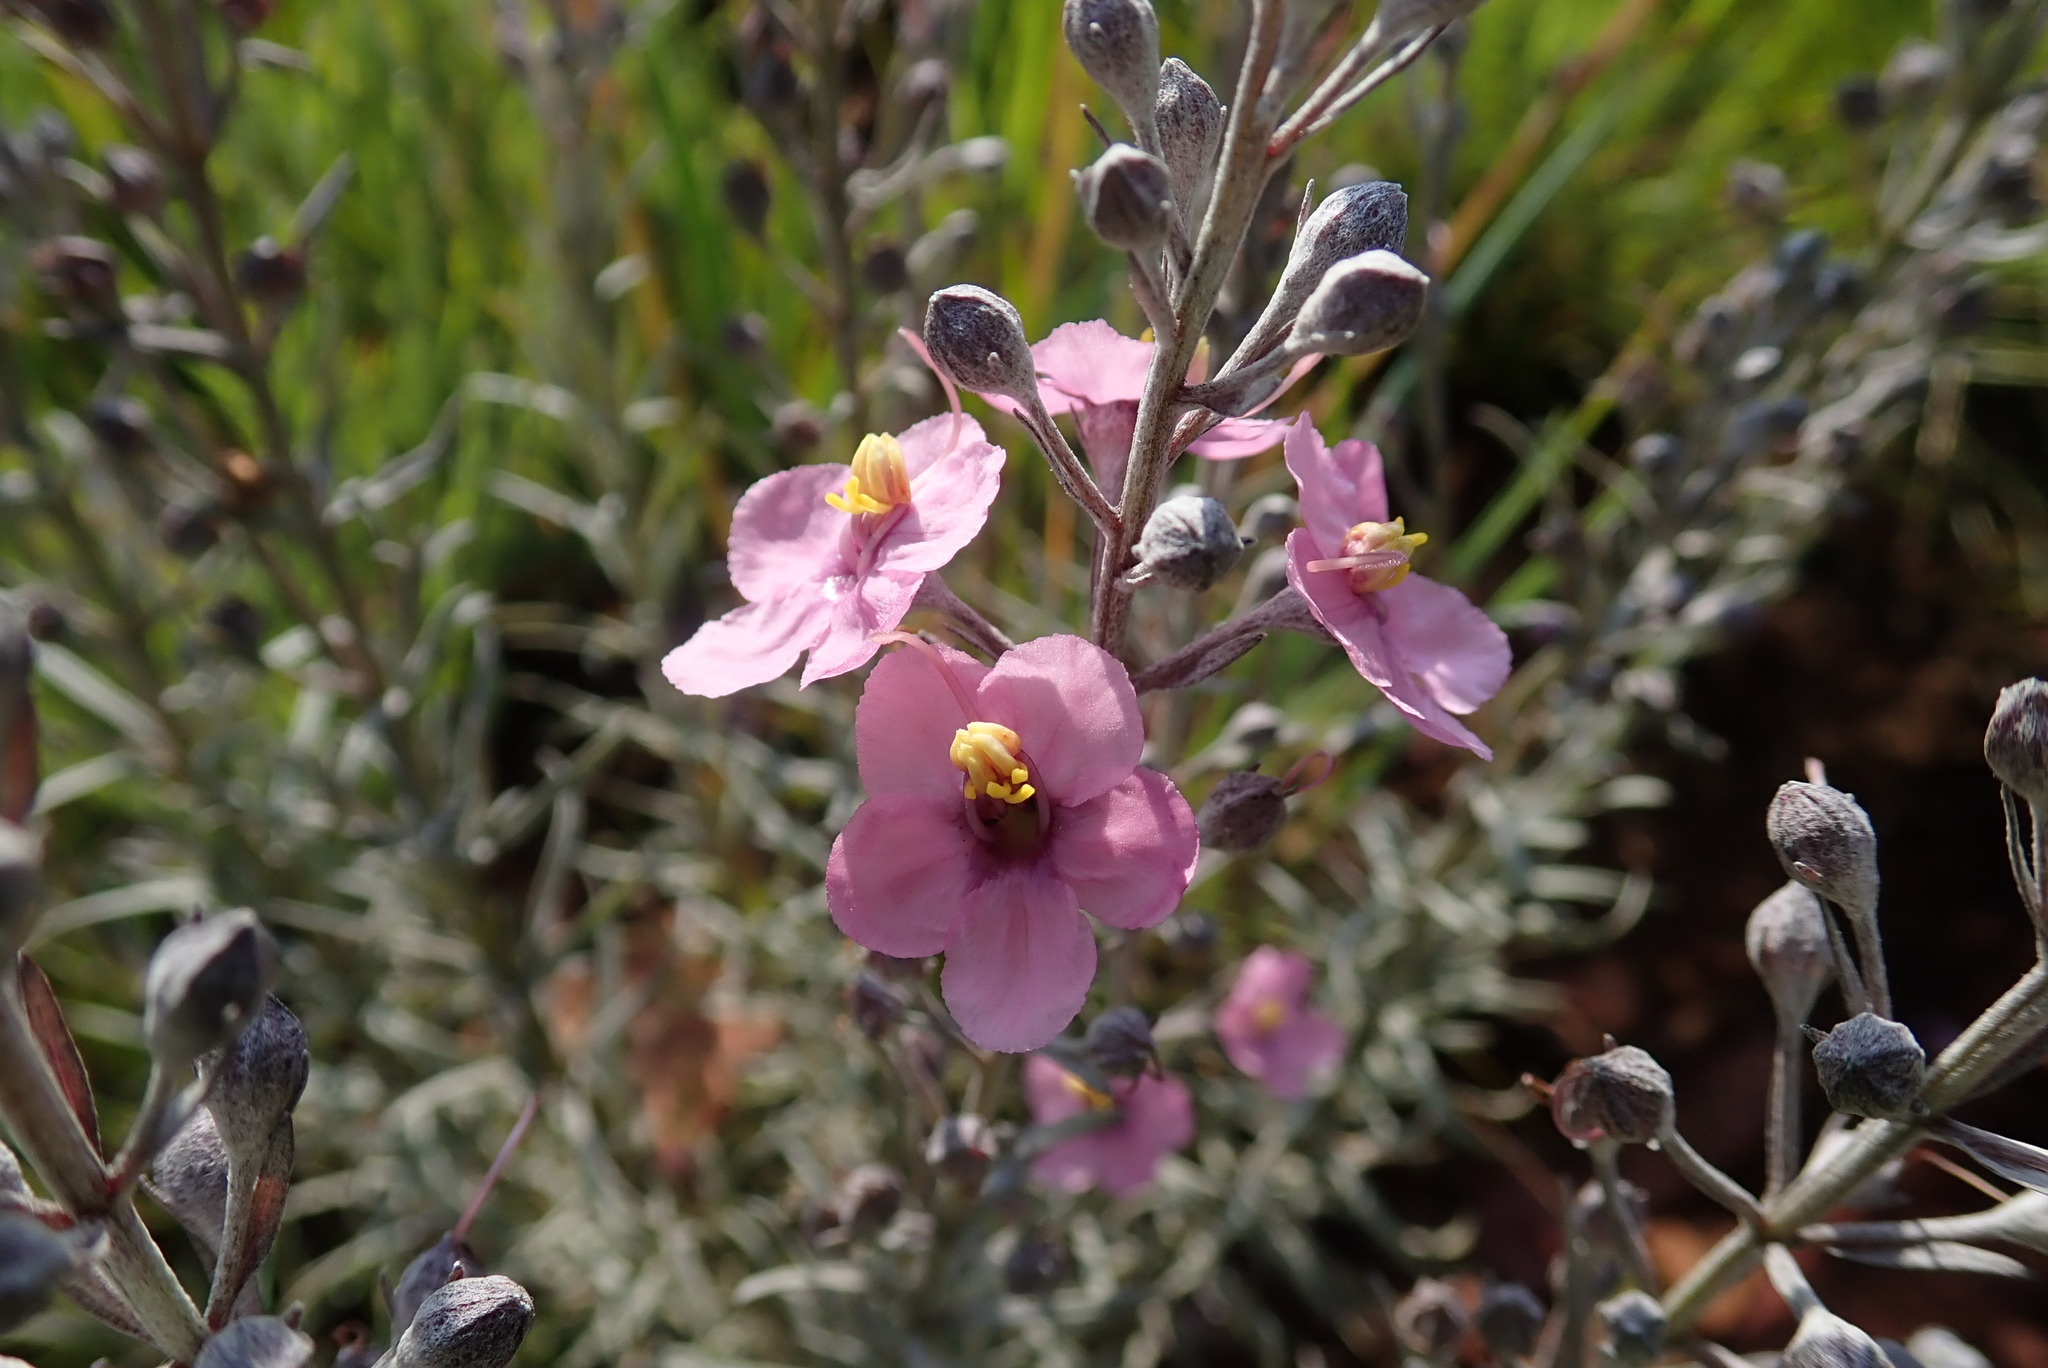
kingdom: Plantae
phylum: Tracheophyta
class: Magnoliopsida
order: Lamiales
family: Orobanchaceae
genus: Sopubia
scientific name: Sopubia cana
